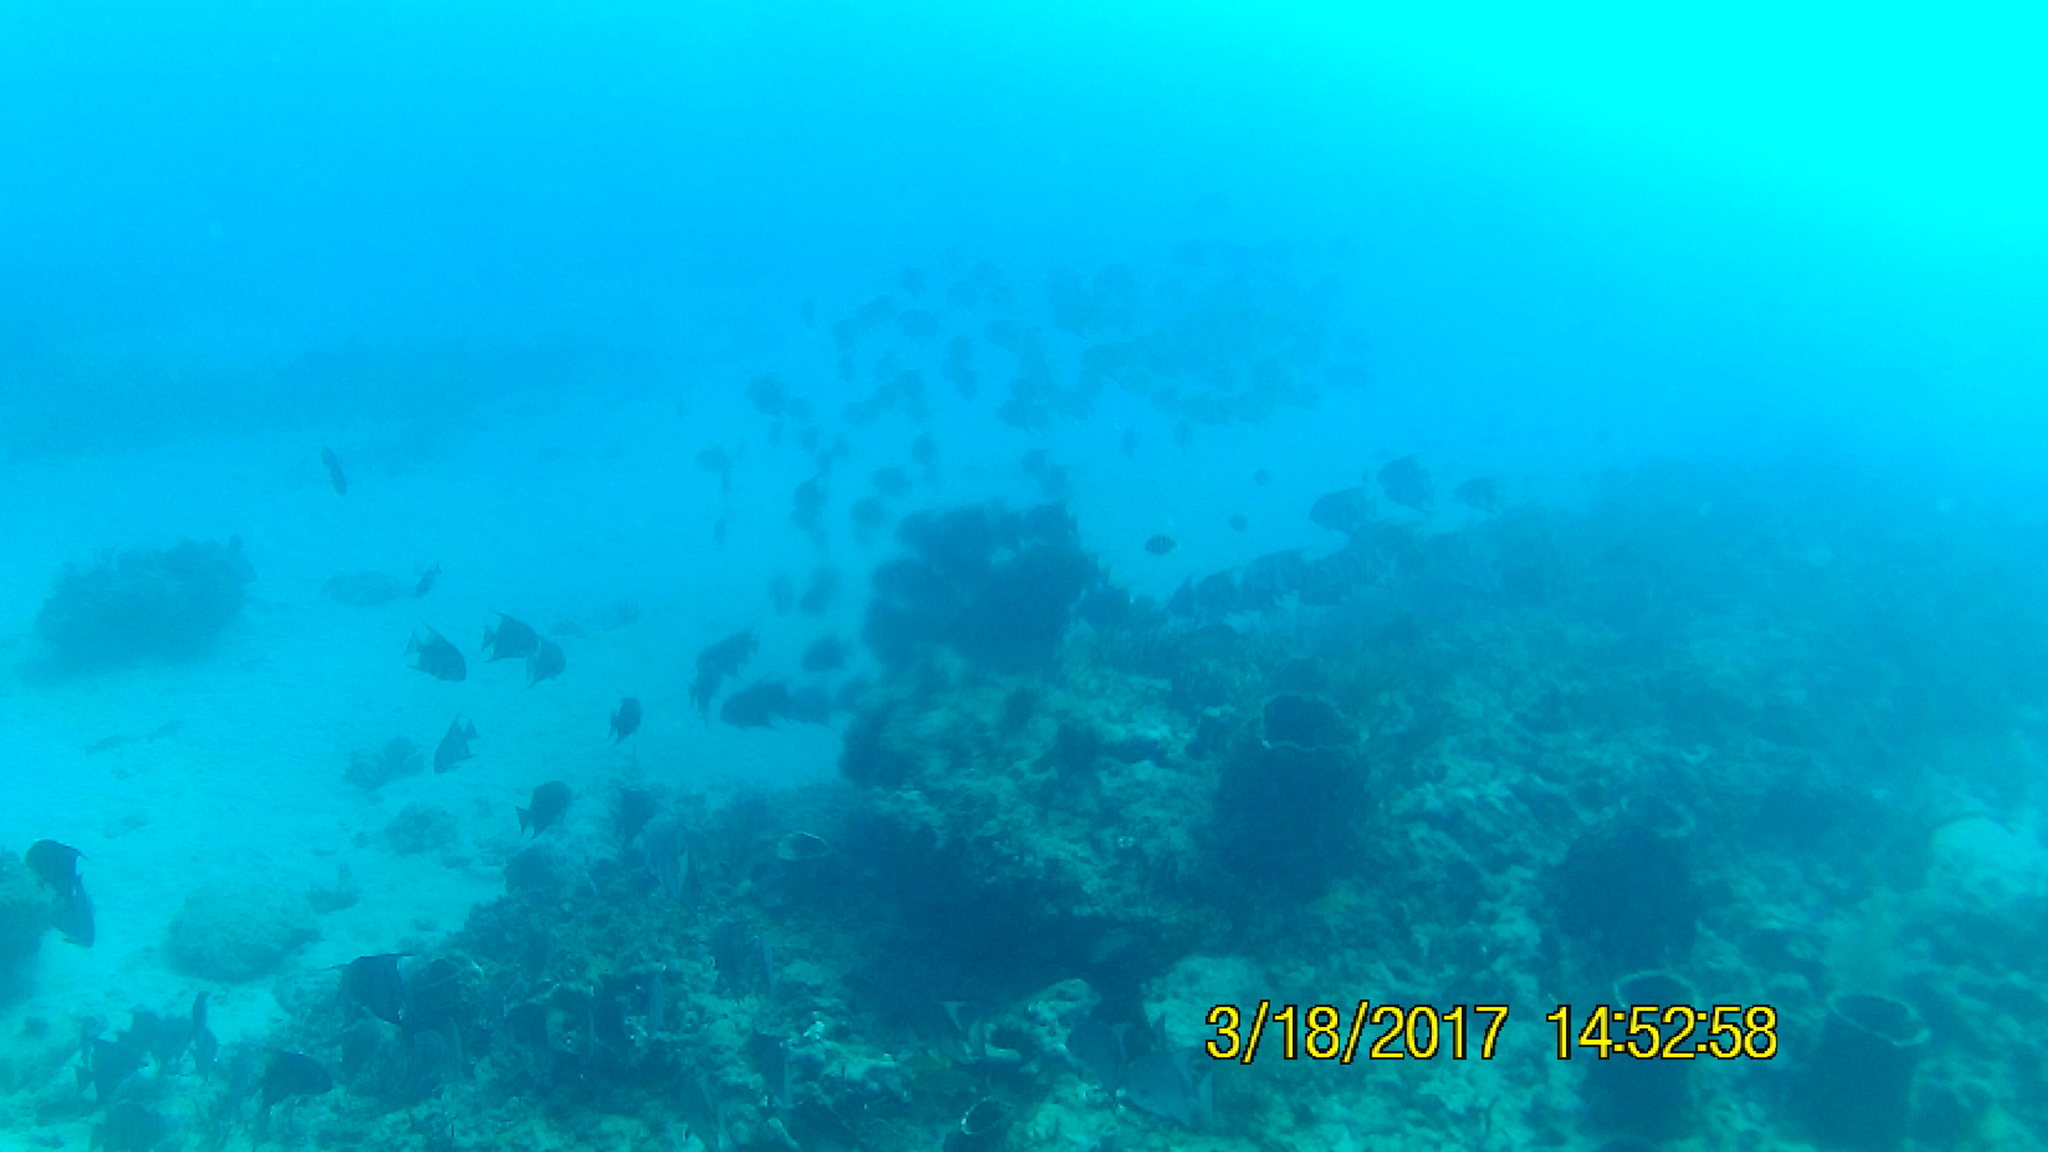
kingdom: Animalia
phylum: Chordata
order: Perciformes
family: Ephippidae
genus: Chaetodipterus
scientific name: Chaetodipterus faber
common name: Ocean cobbler
